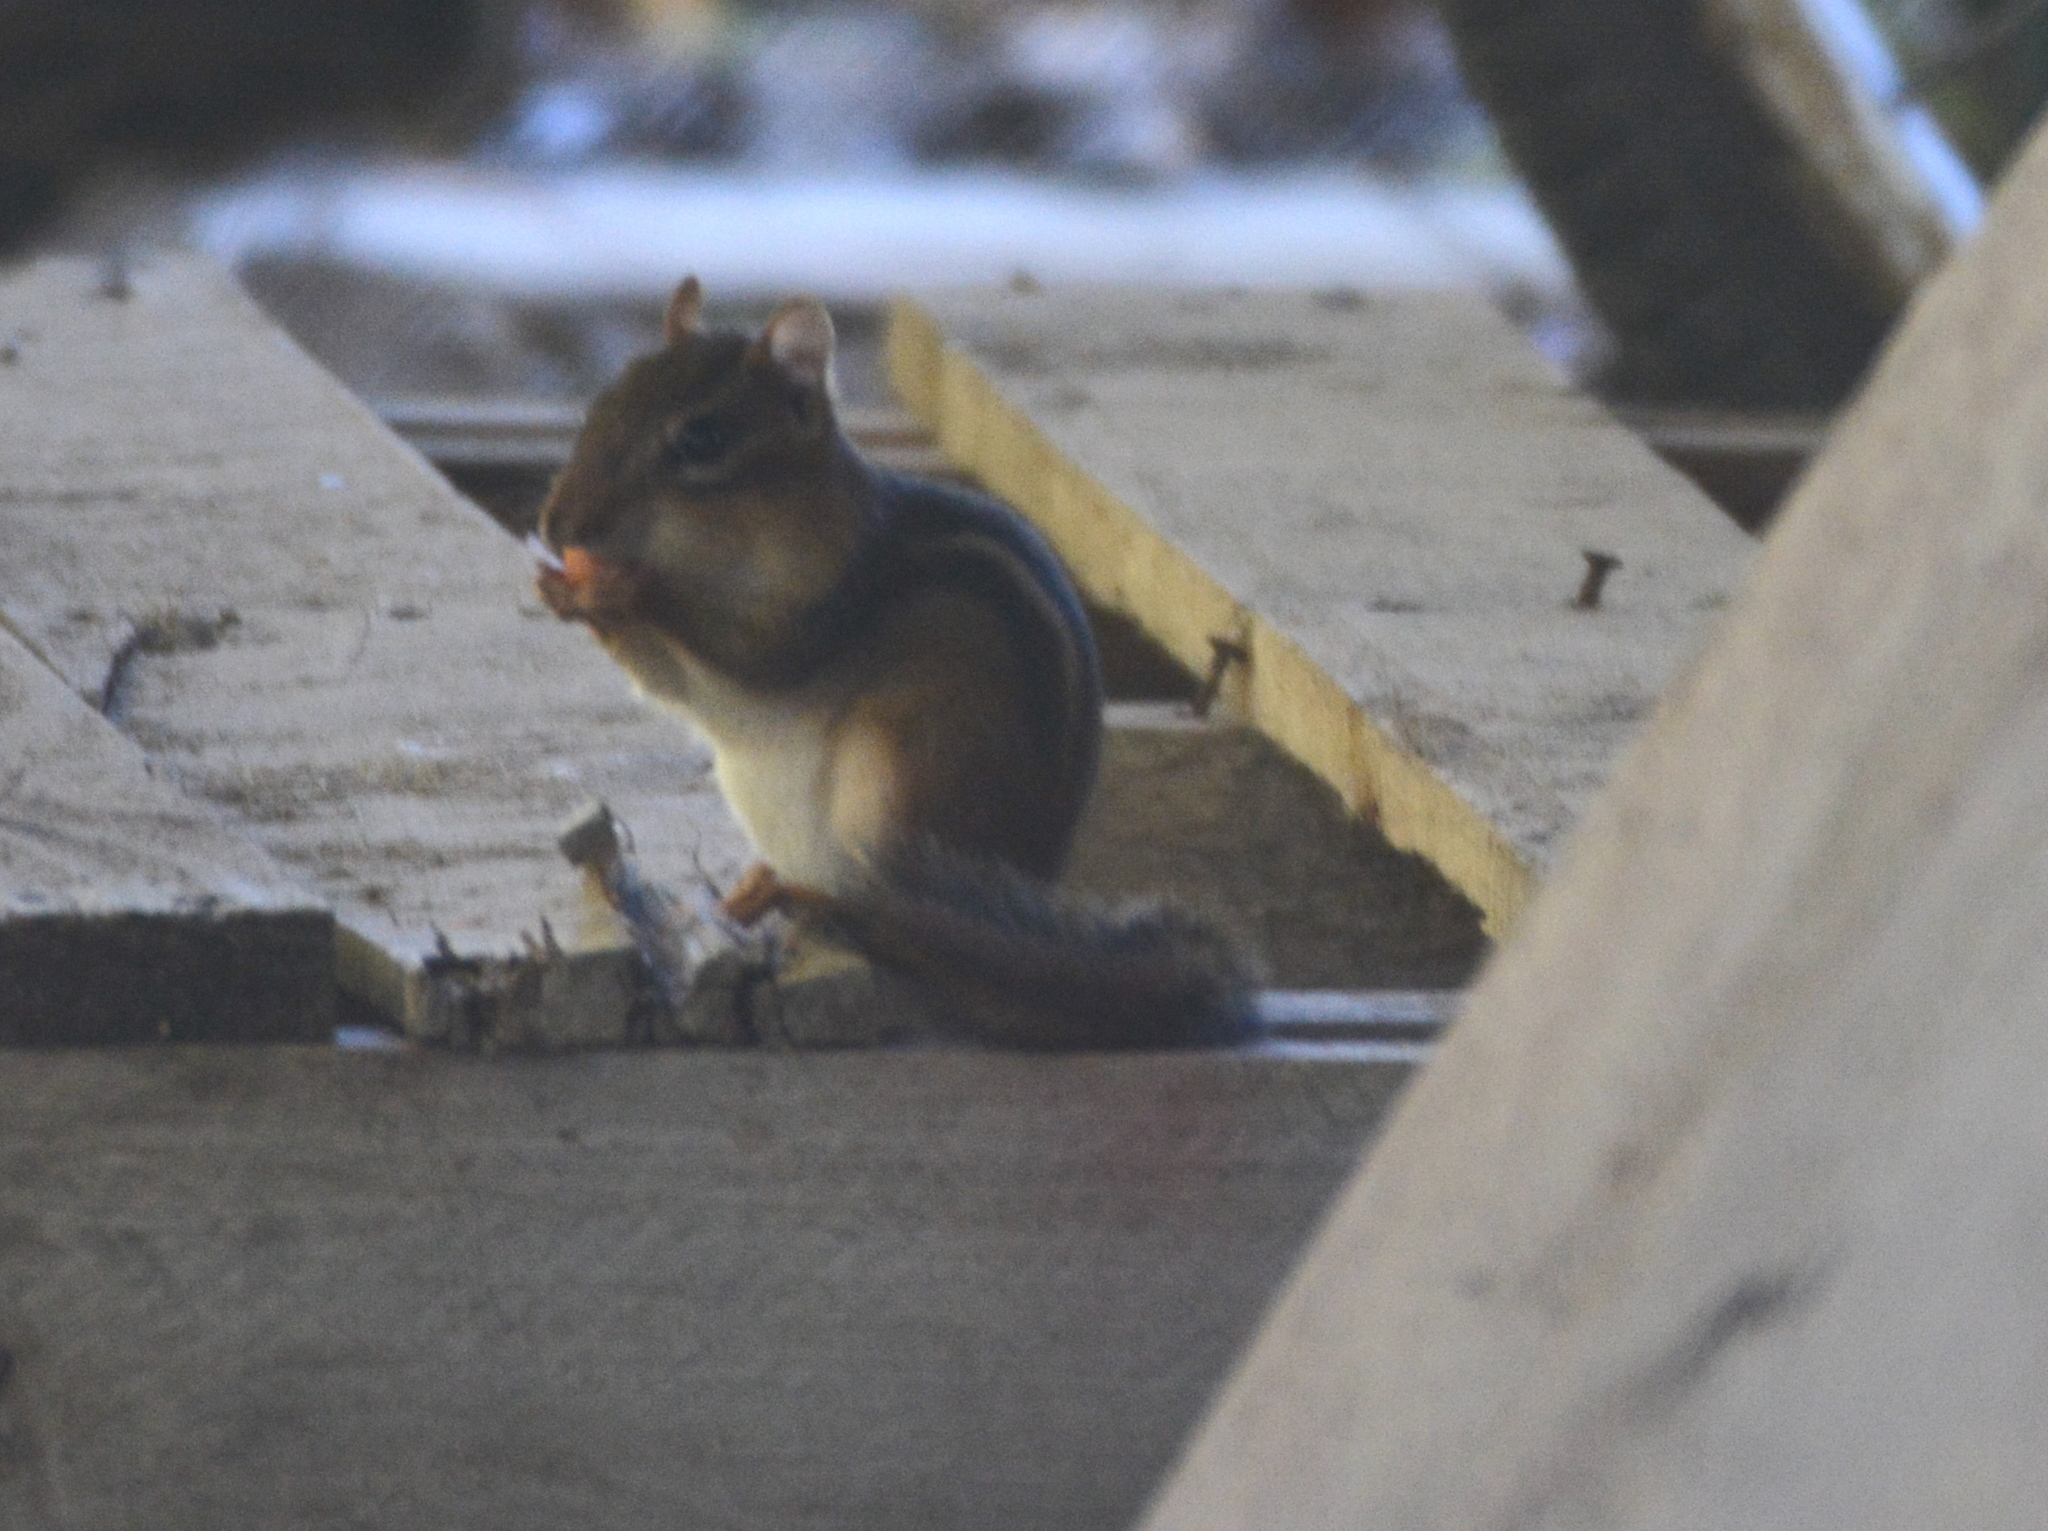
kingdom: Animalia
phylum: Chordata
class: Mammalia
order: Rodentia
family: Sciuridae
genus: Tamias
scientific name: Tamias striatus
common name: Eastern chipmunk
